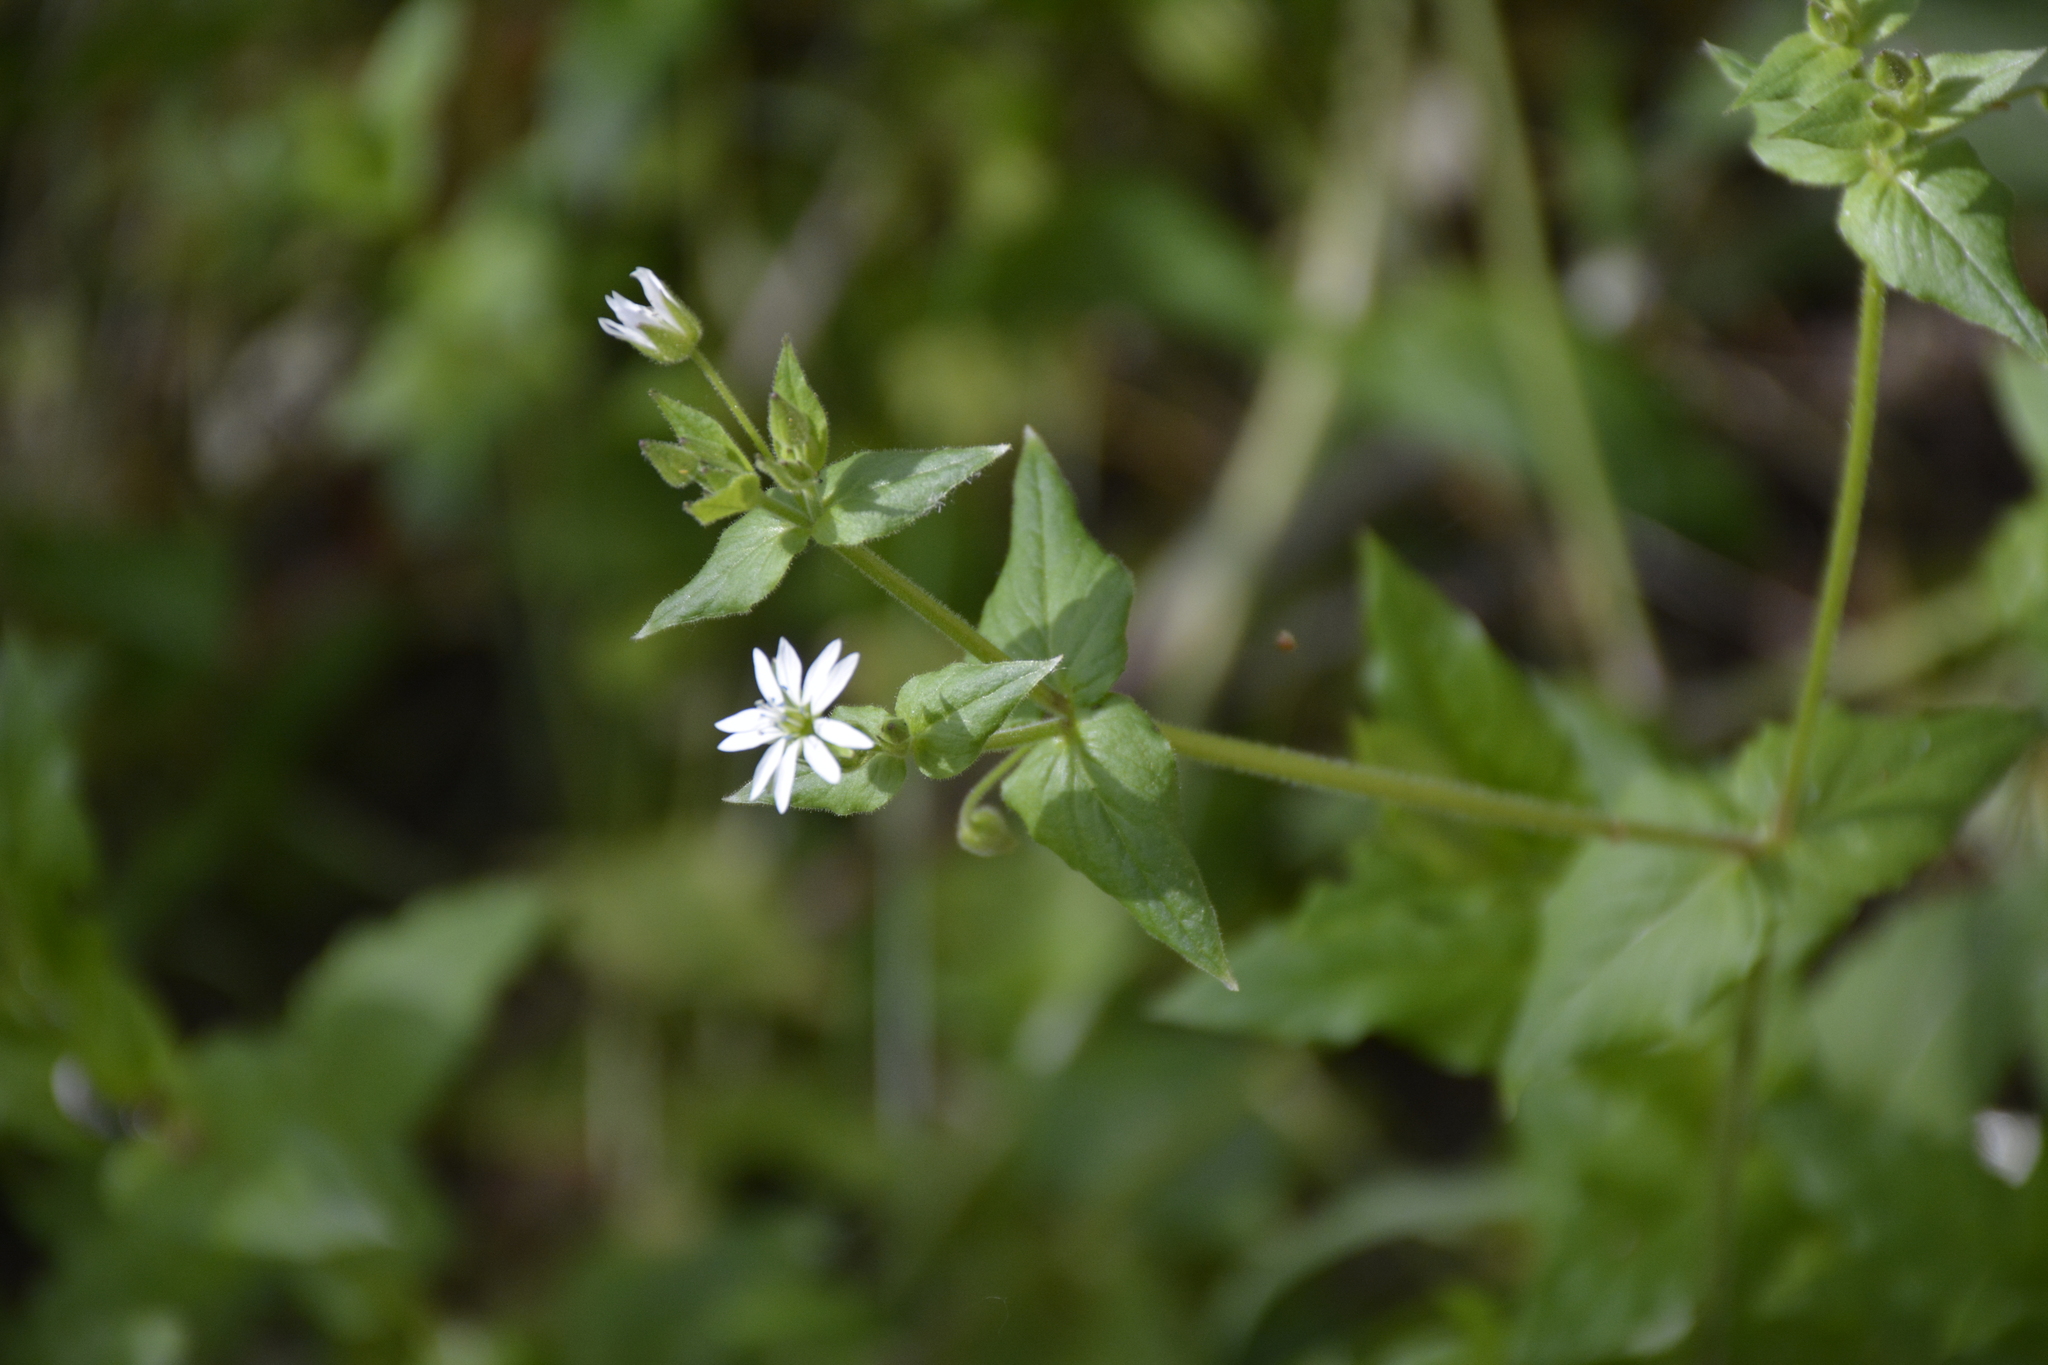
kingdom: Plantae
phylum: Tracheophyta
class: Magnoliopsida
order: Caryophyllales
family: Caryophyllaceae
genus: Stellaria
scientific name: Stellaria aquatica
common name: Water chickweed
